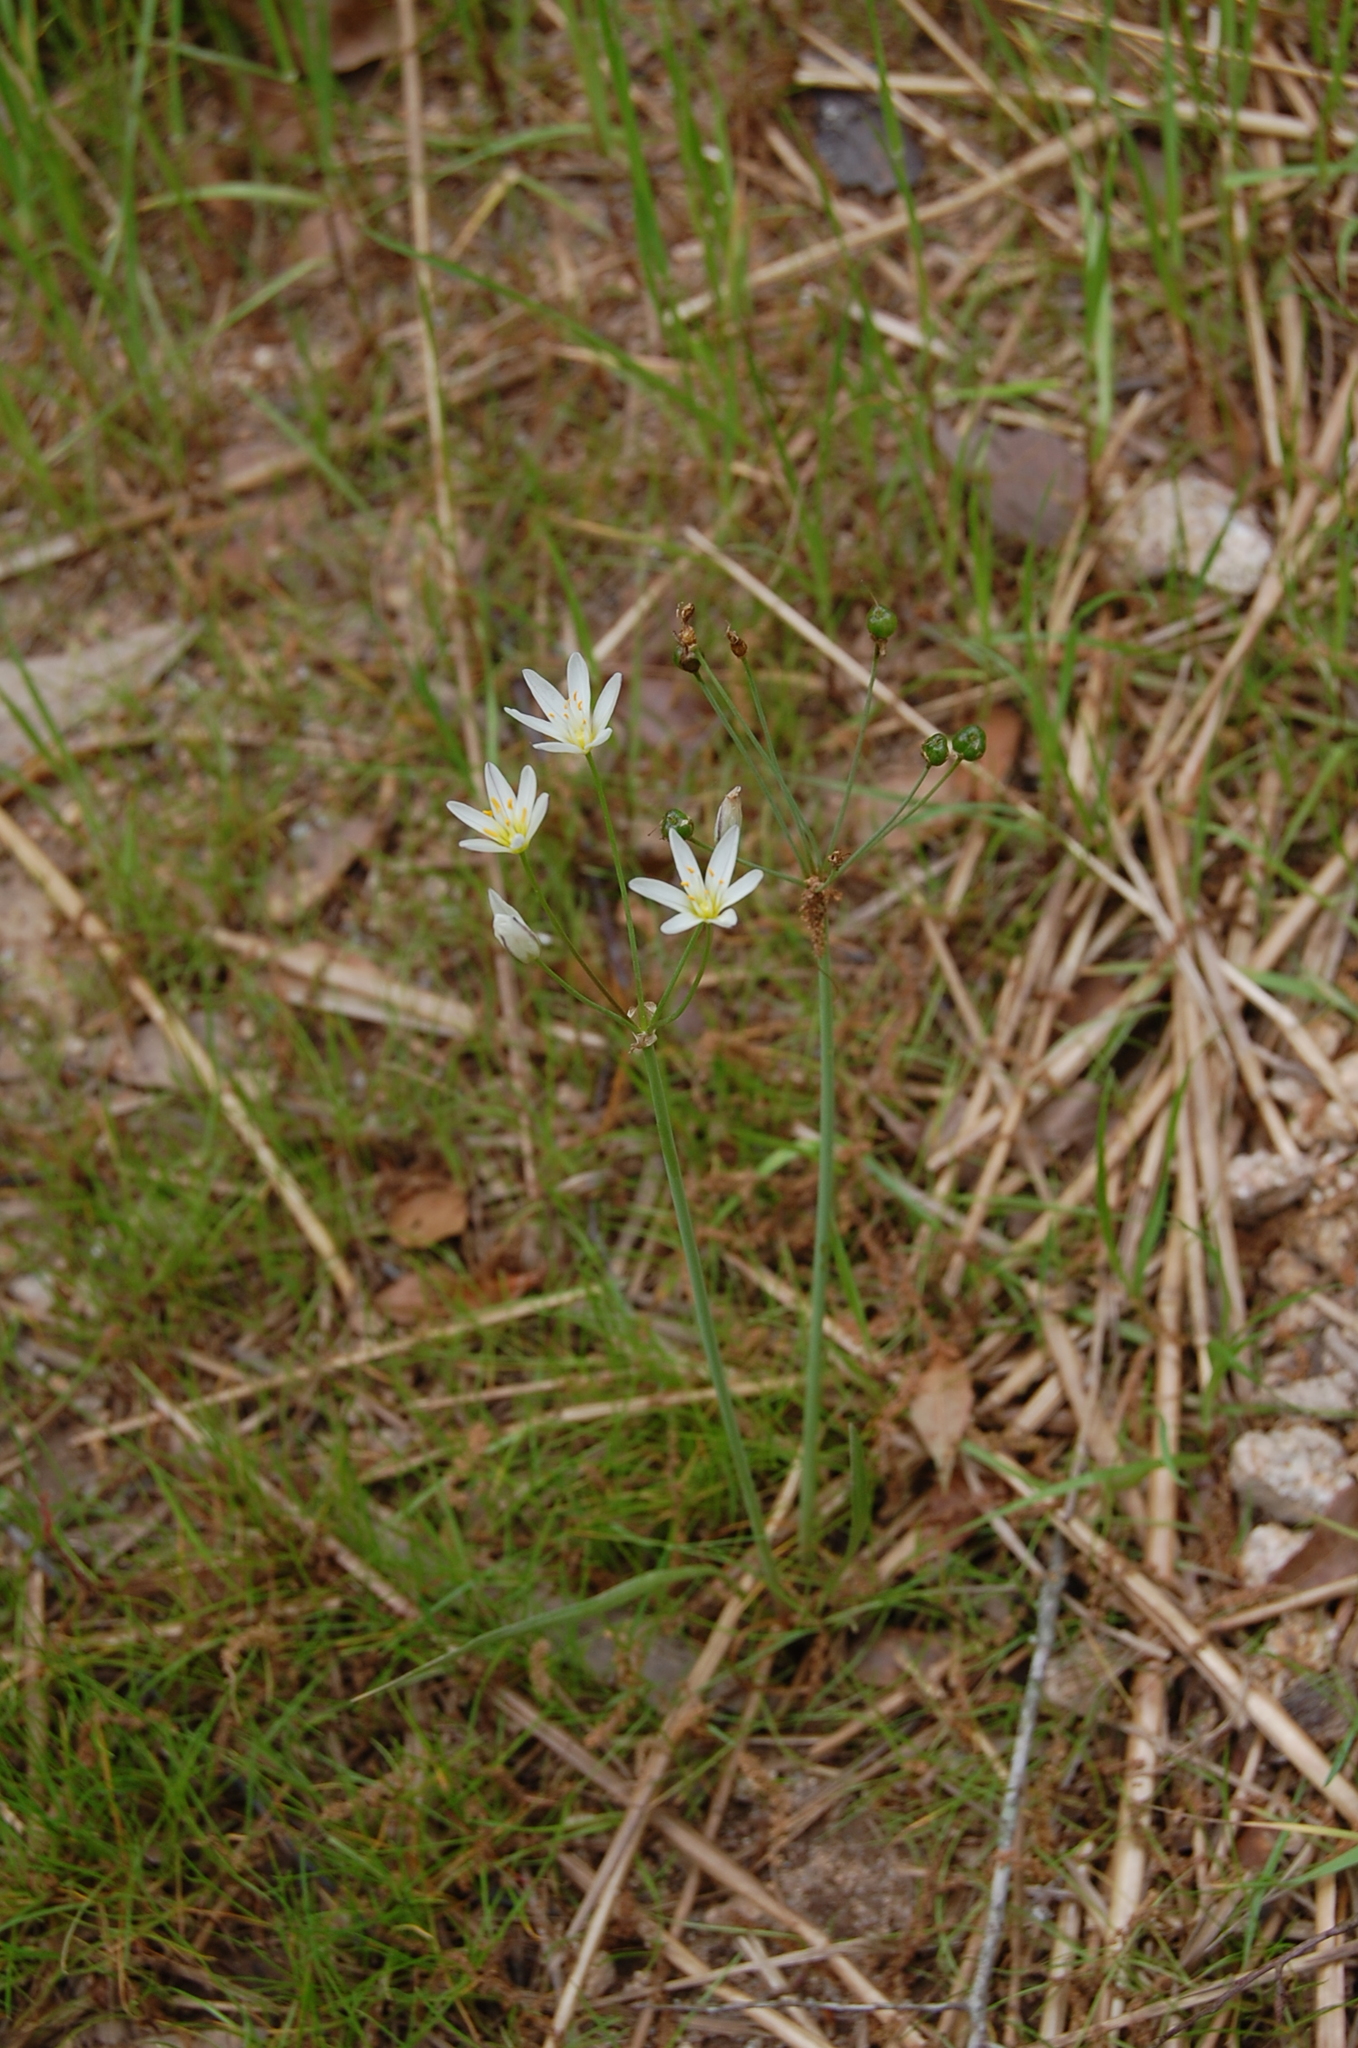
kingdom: Plantae
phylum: Tracheophyta
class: Liliopsida
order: Asparagales
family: Amaryllidaceae
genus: Nothoscordum
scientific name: Nothoscordum bivalve
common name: Crow-poison
